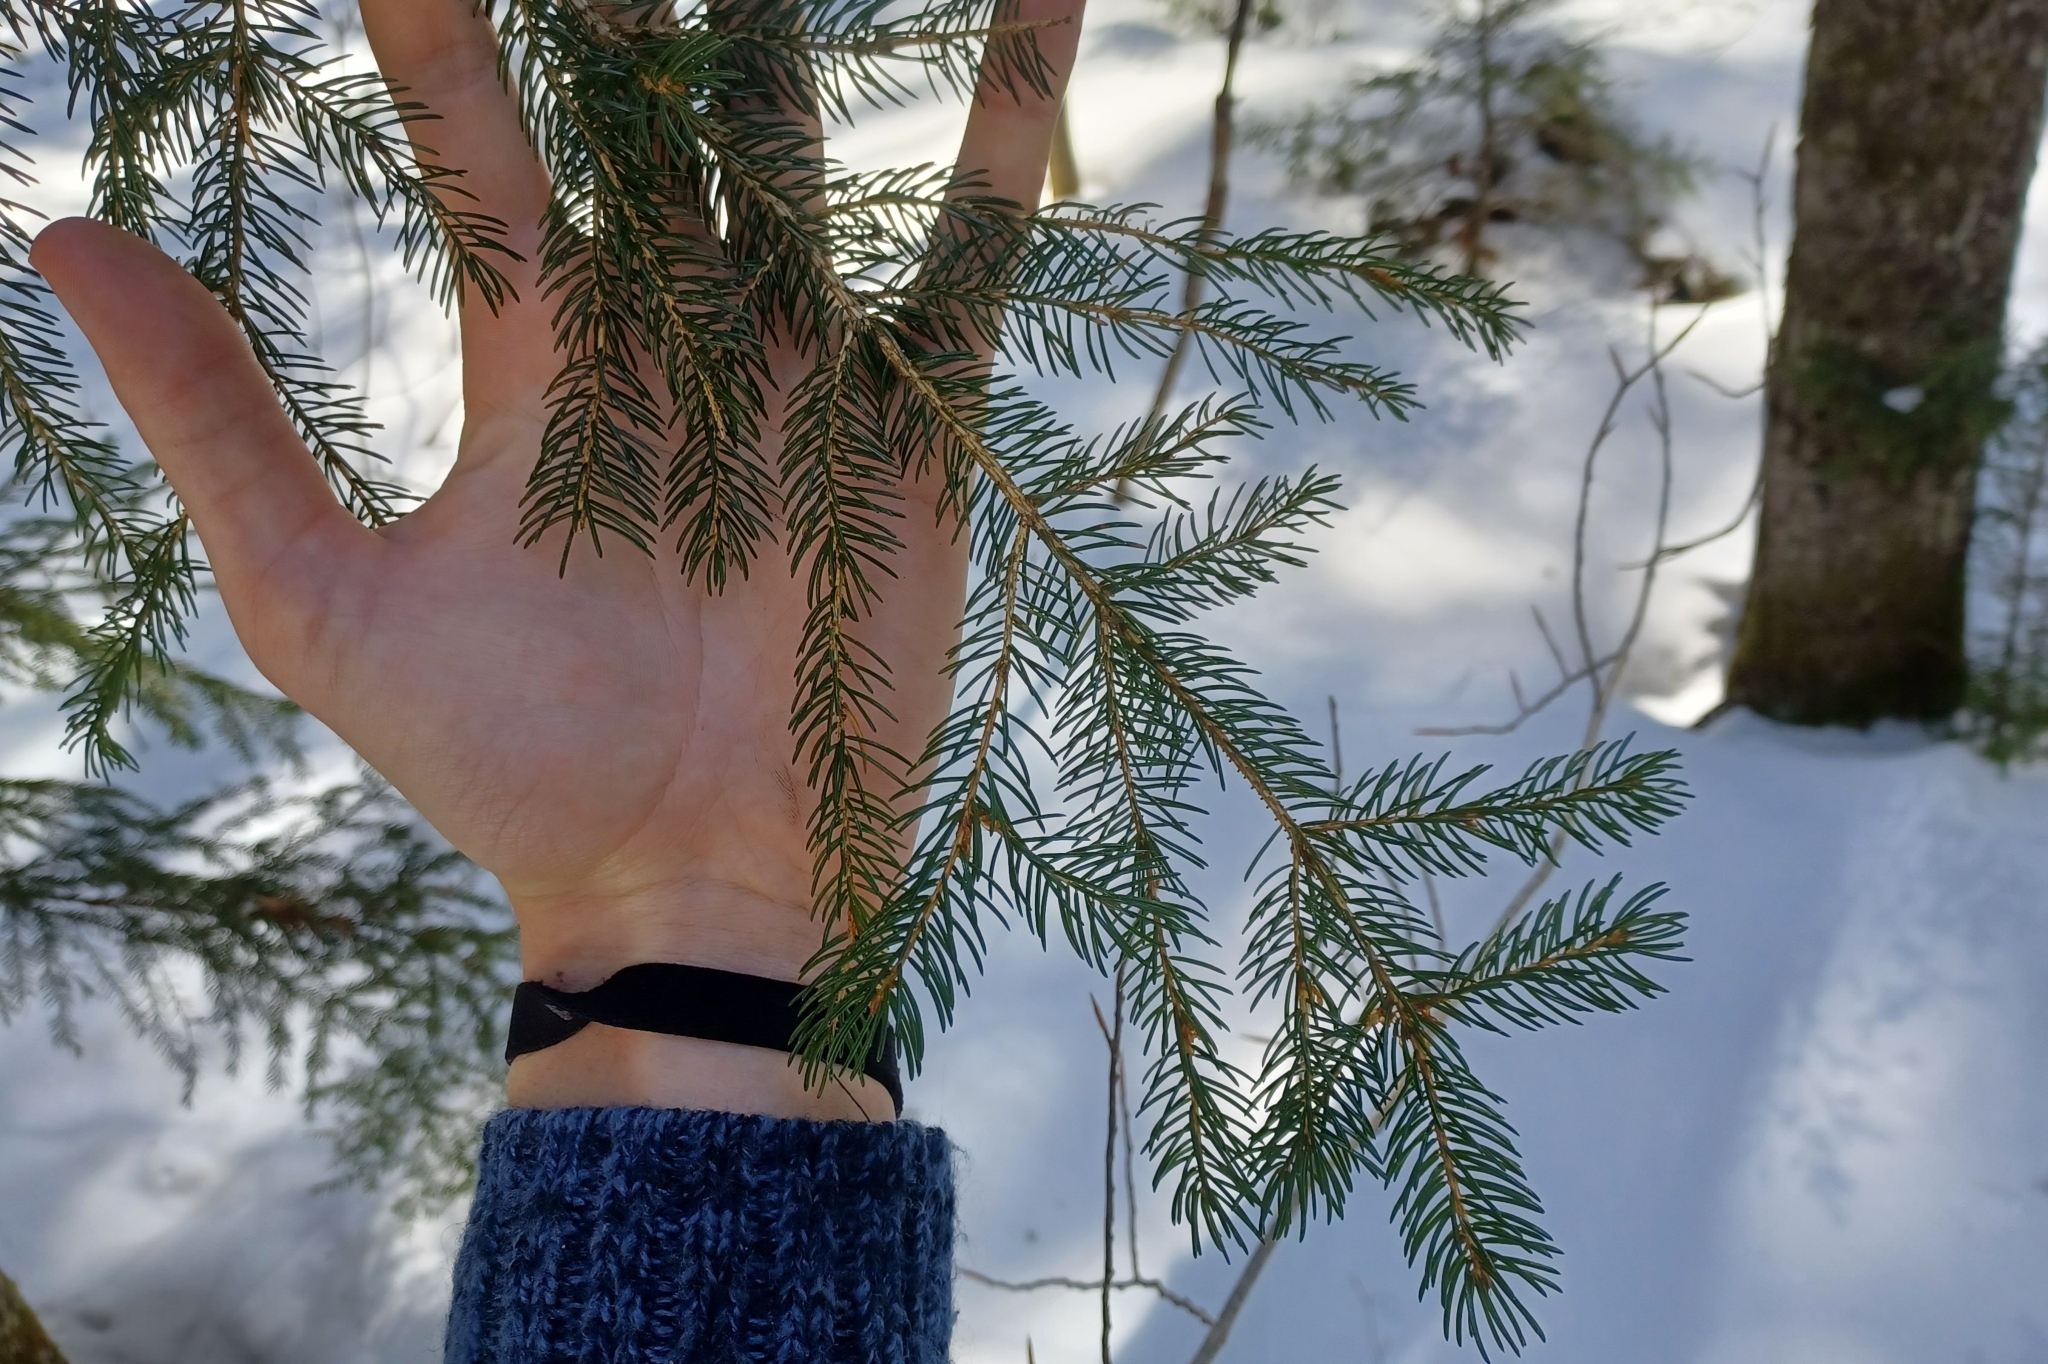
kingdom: Plantae
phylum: Tracheophyta
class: Pinopsida
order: Pinales
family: Pinaceae
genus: Picea
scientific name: Picea rubens
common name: Red spruce
